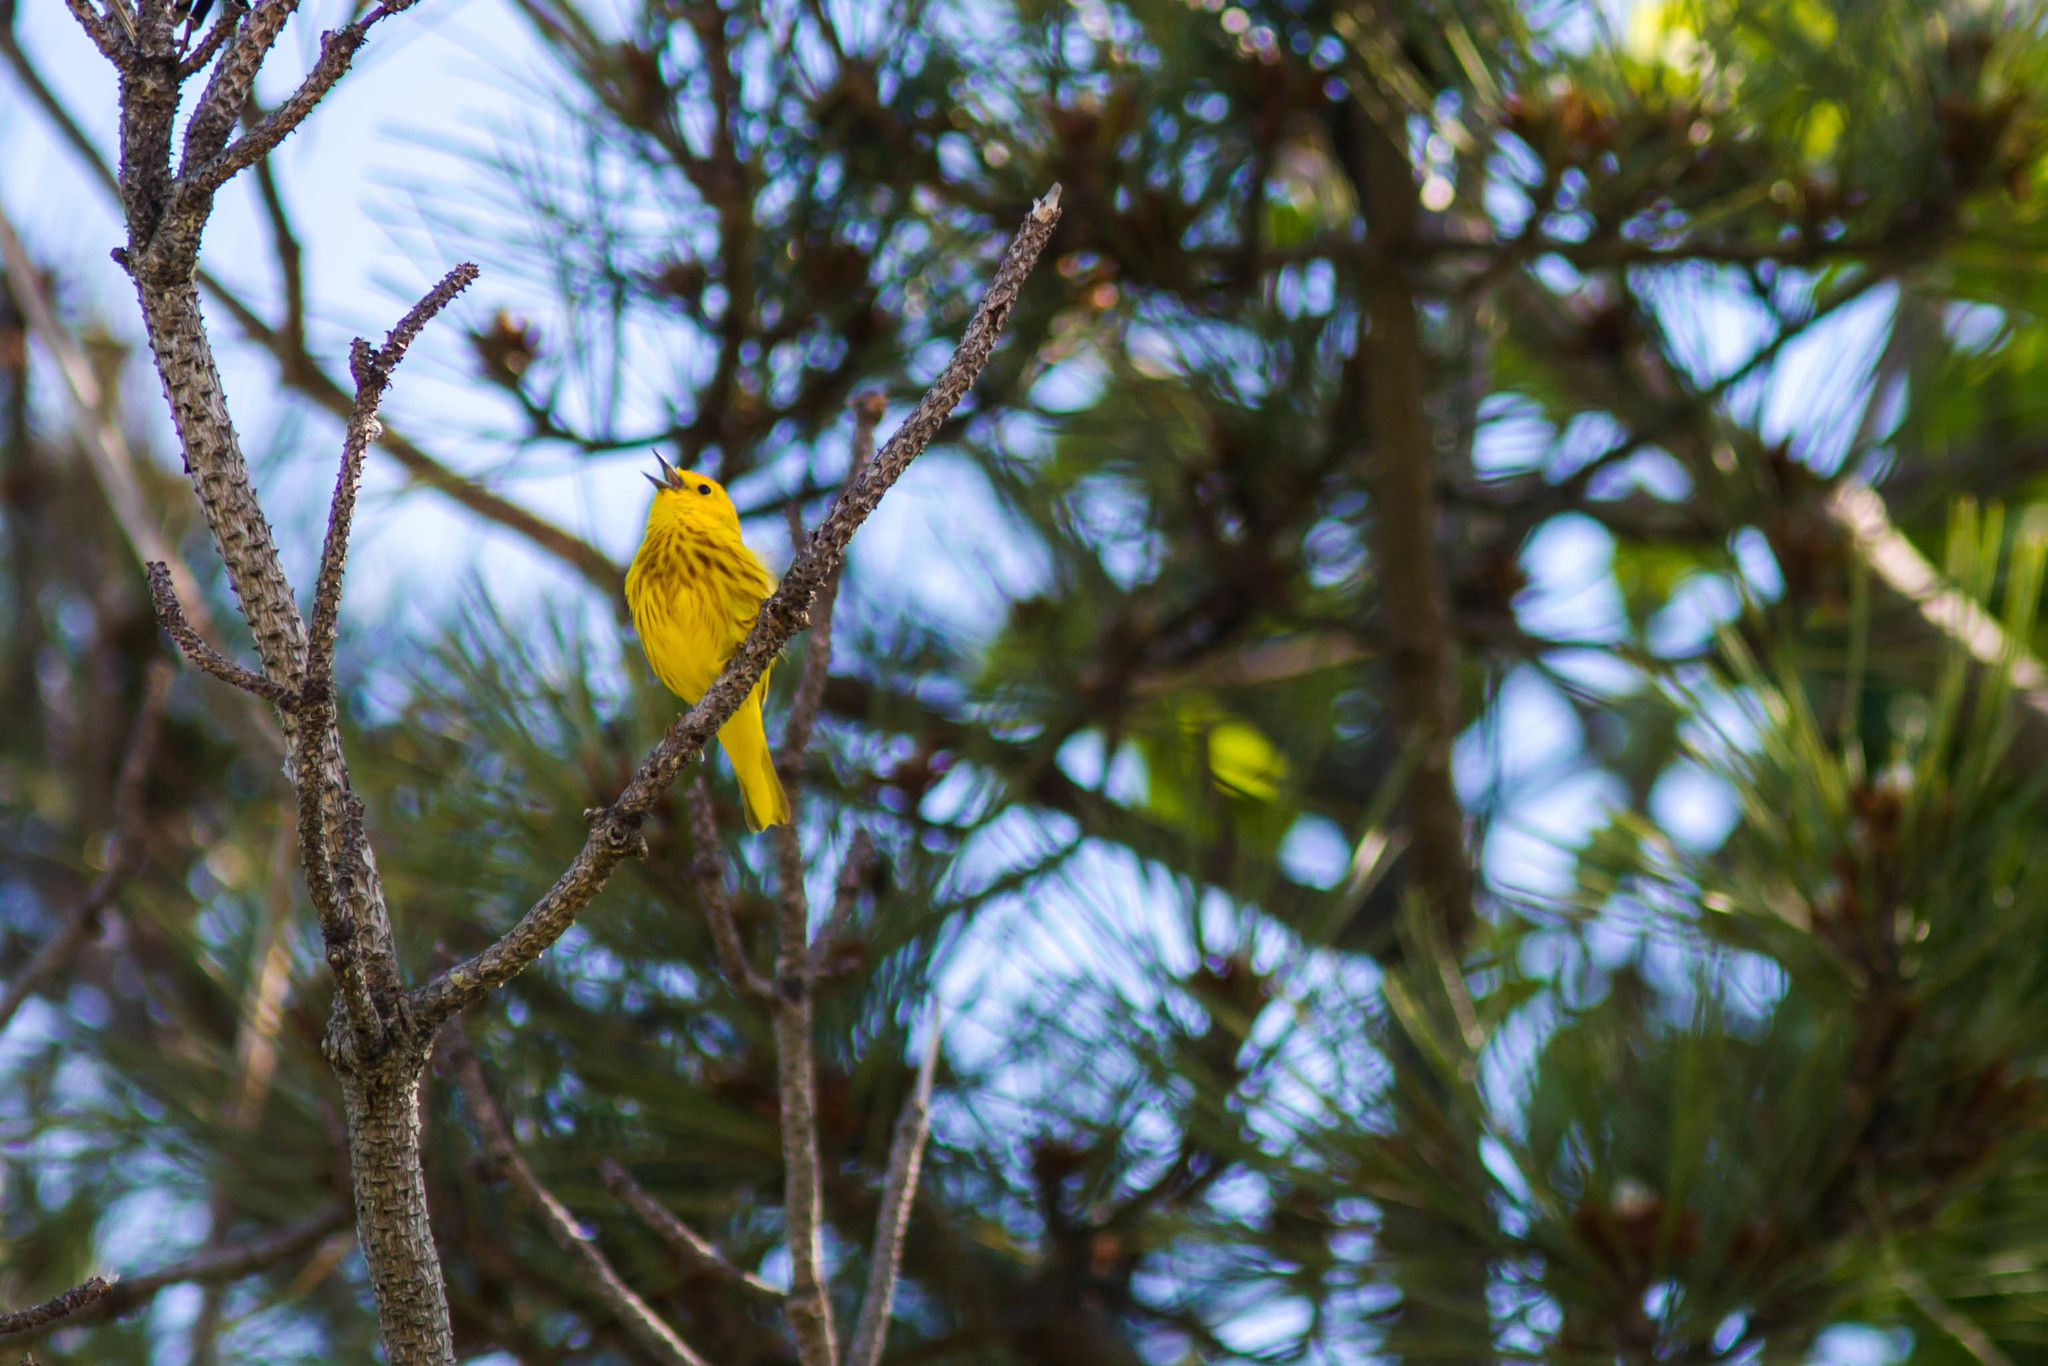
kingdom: Animalia
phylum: Chordata
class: Aves
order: Passeriformes
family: Parulidae
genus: Setophaga
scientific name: Setophaga petechia
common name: Yellow warbler
